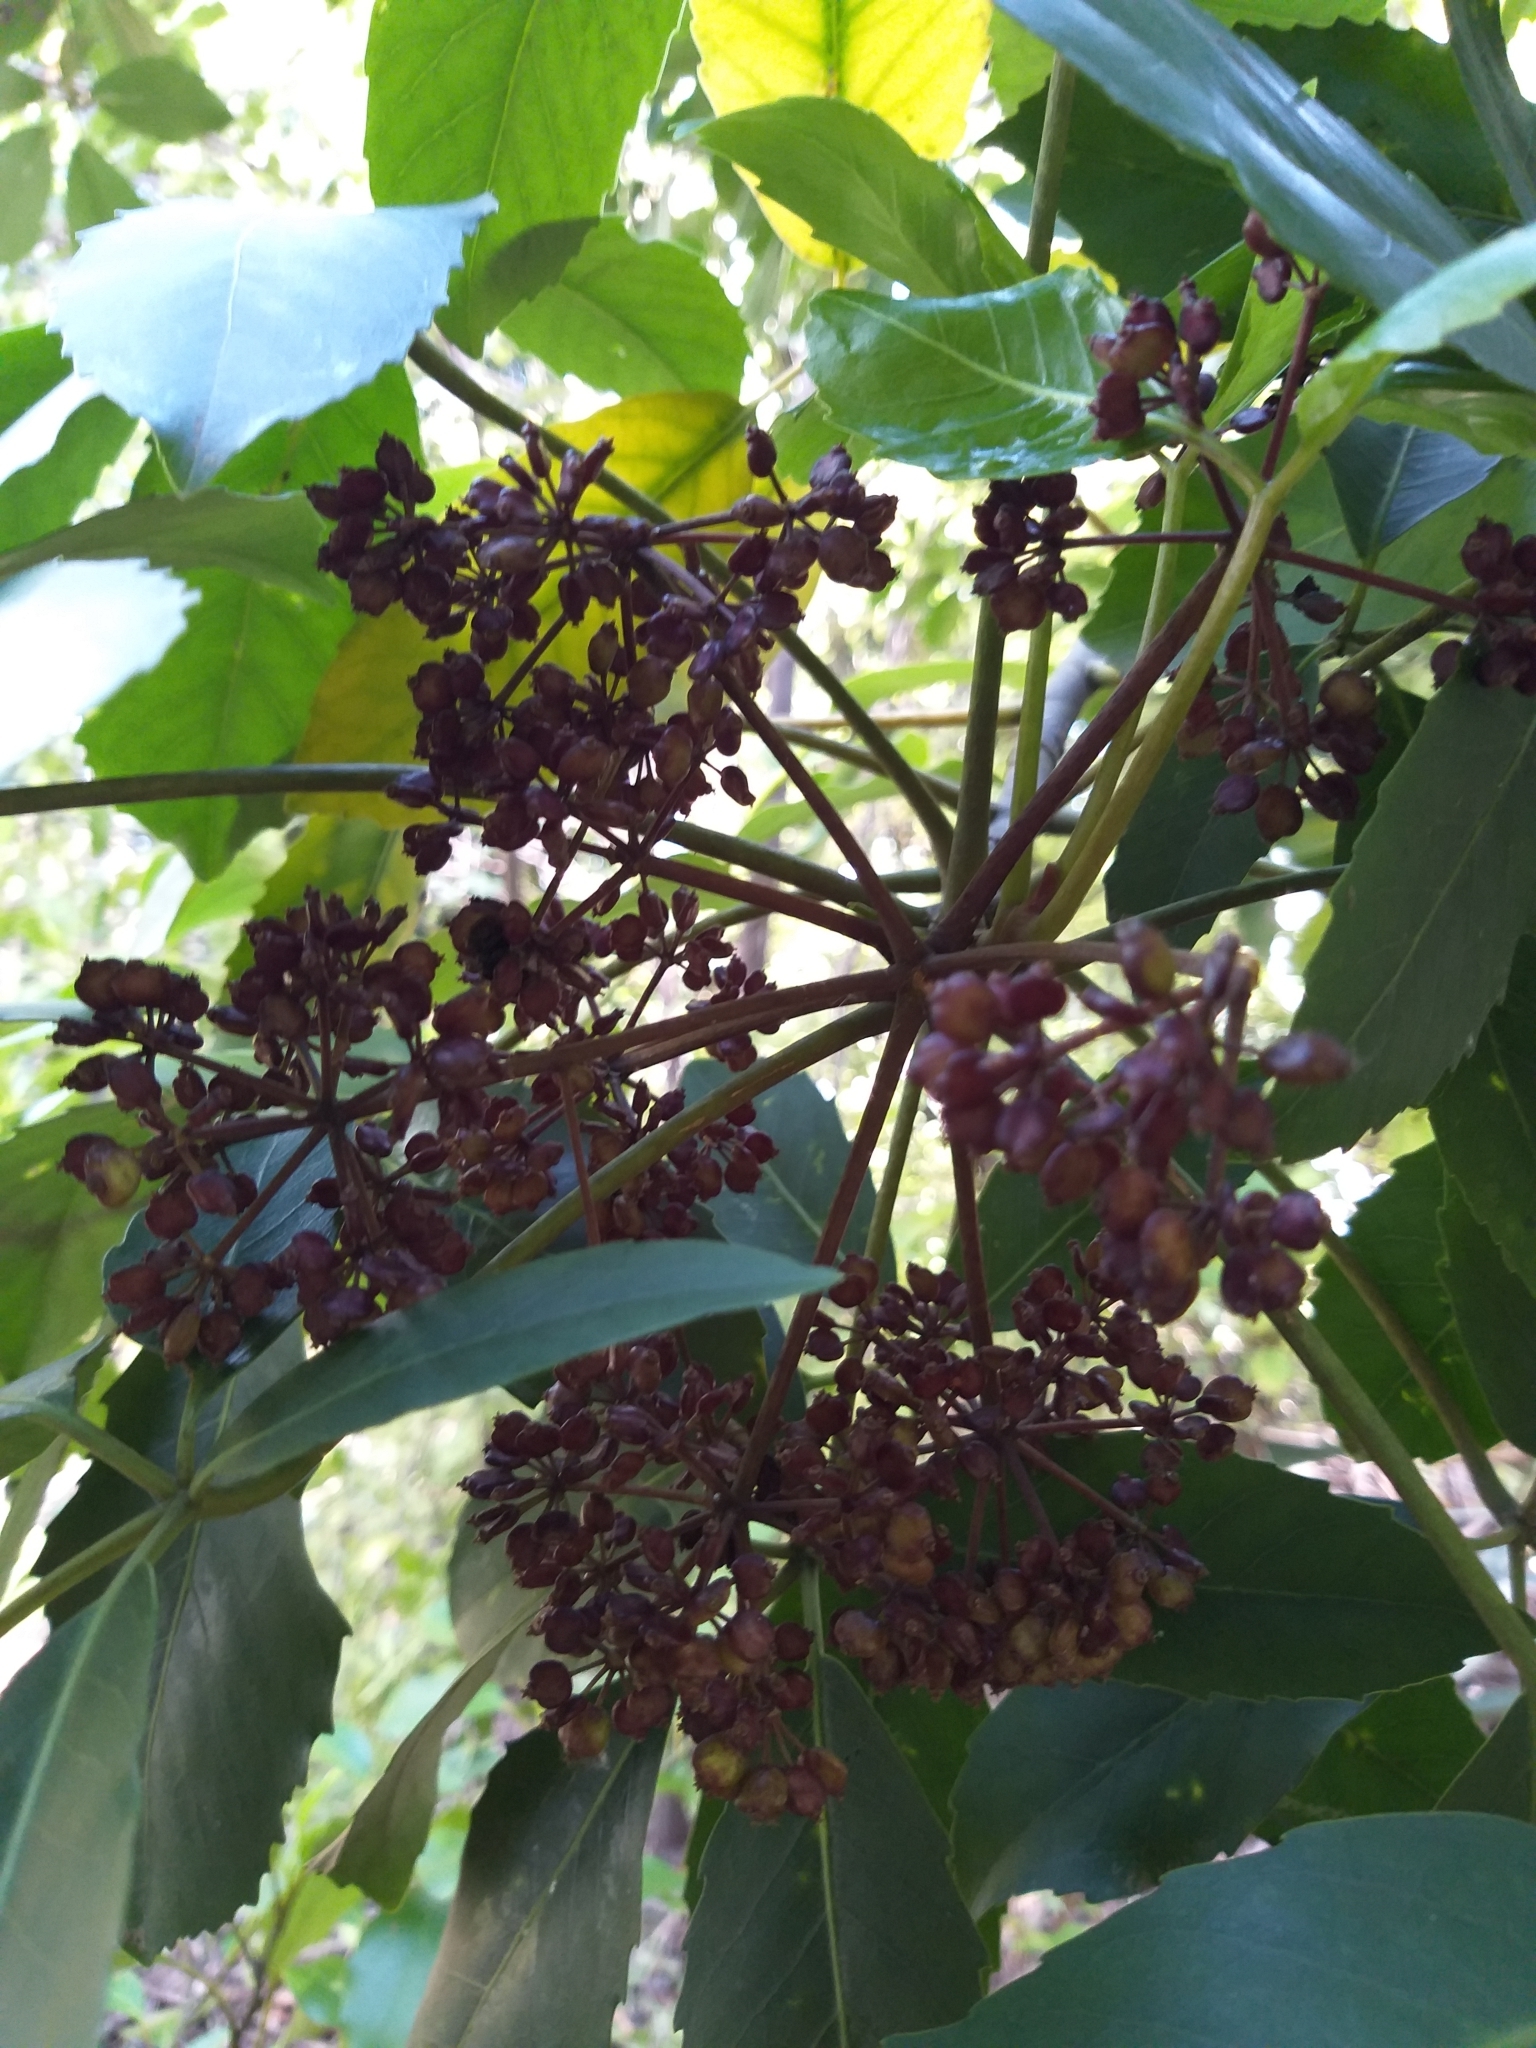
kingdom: Plantae
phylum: Tracheophyta
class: Magnoliopsida
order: Apiales
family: Araliaceae
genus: Neopanax
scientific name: Neopanax arboreus
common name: Five-fingers
